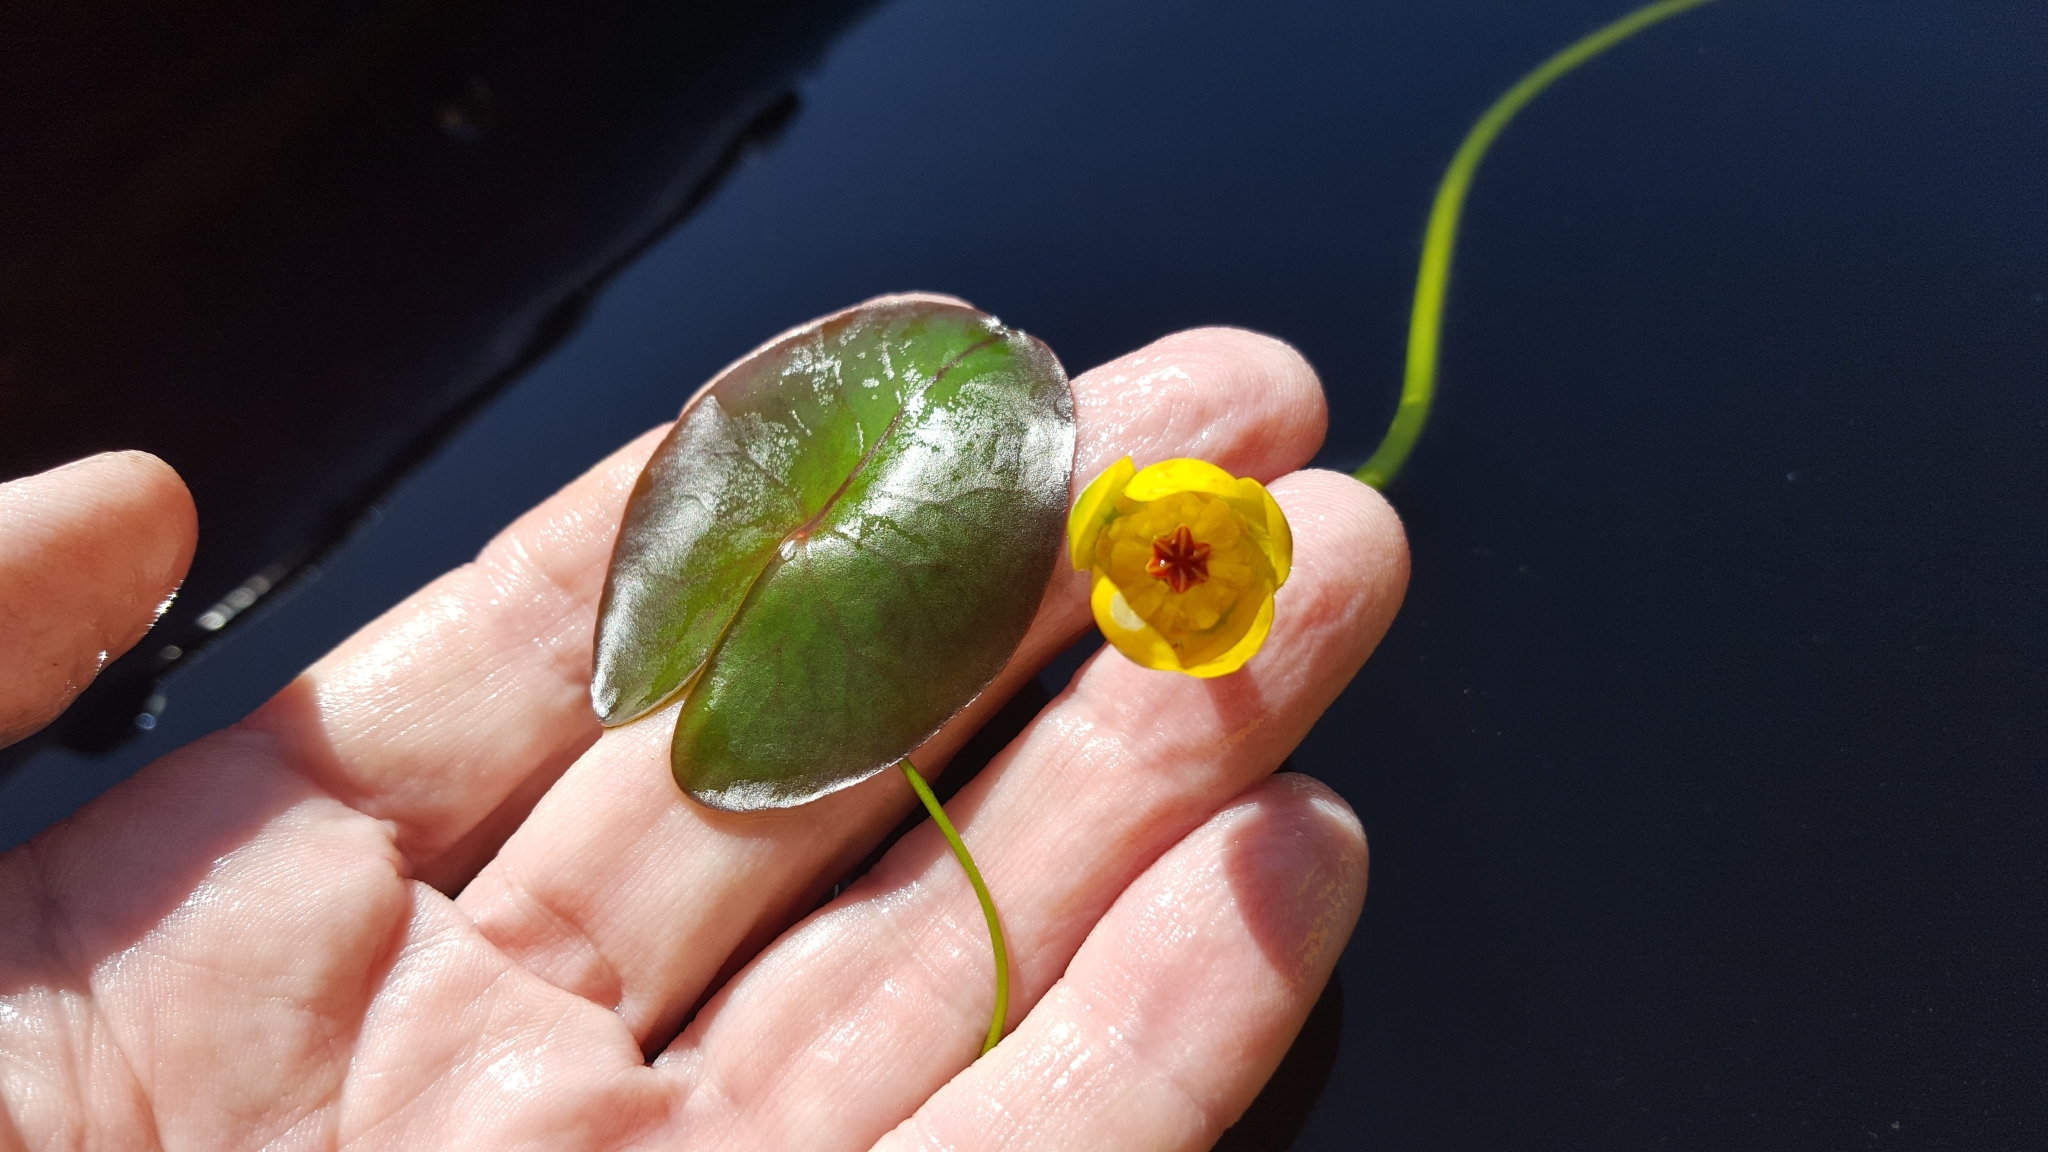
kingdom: Plantae
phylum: Tracheophyta
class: Magnoliopsida
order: Nymphaeales
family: Nymphaeaceae
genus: Nuphar
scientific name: Nuphar microphylla
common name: Small pond-lily
